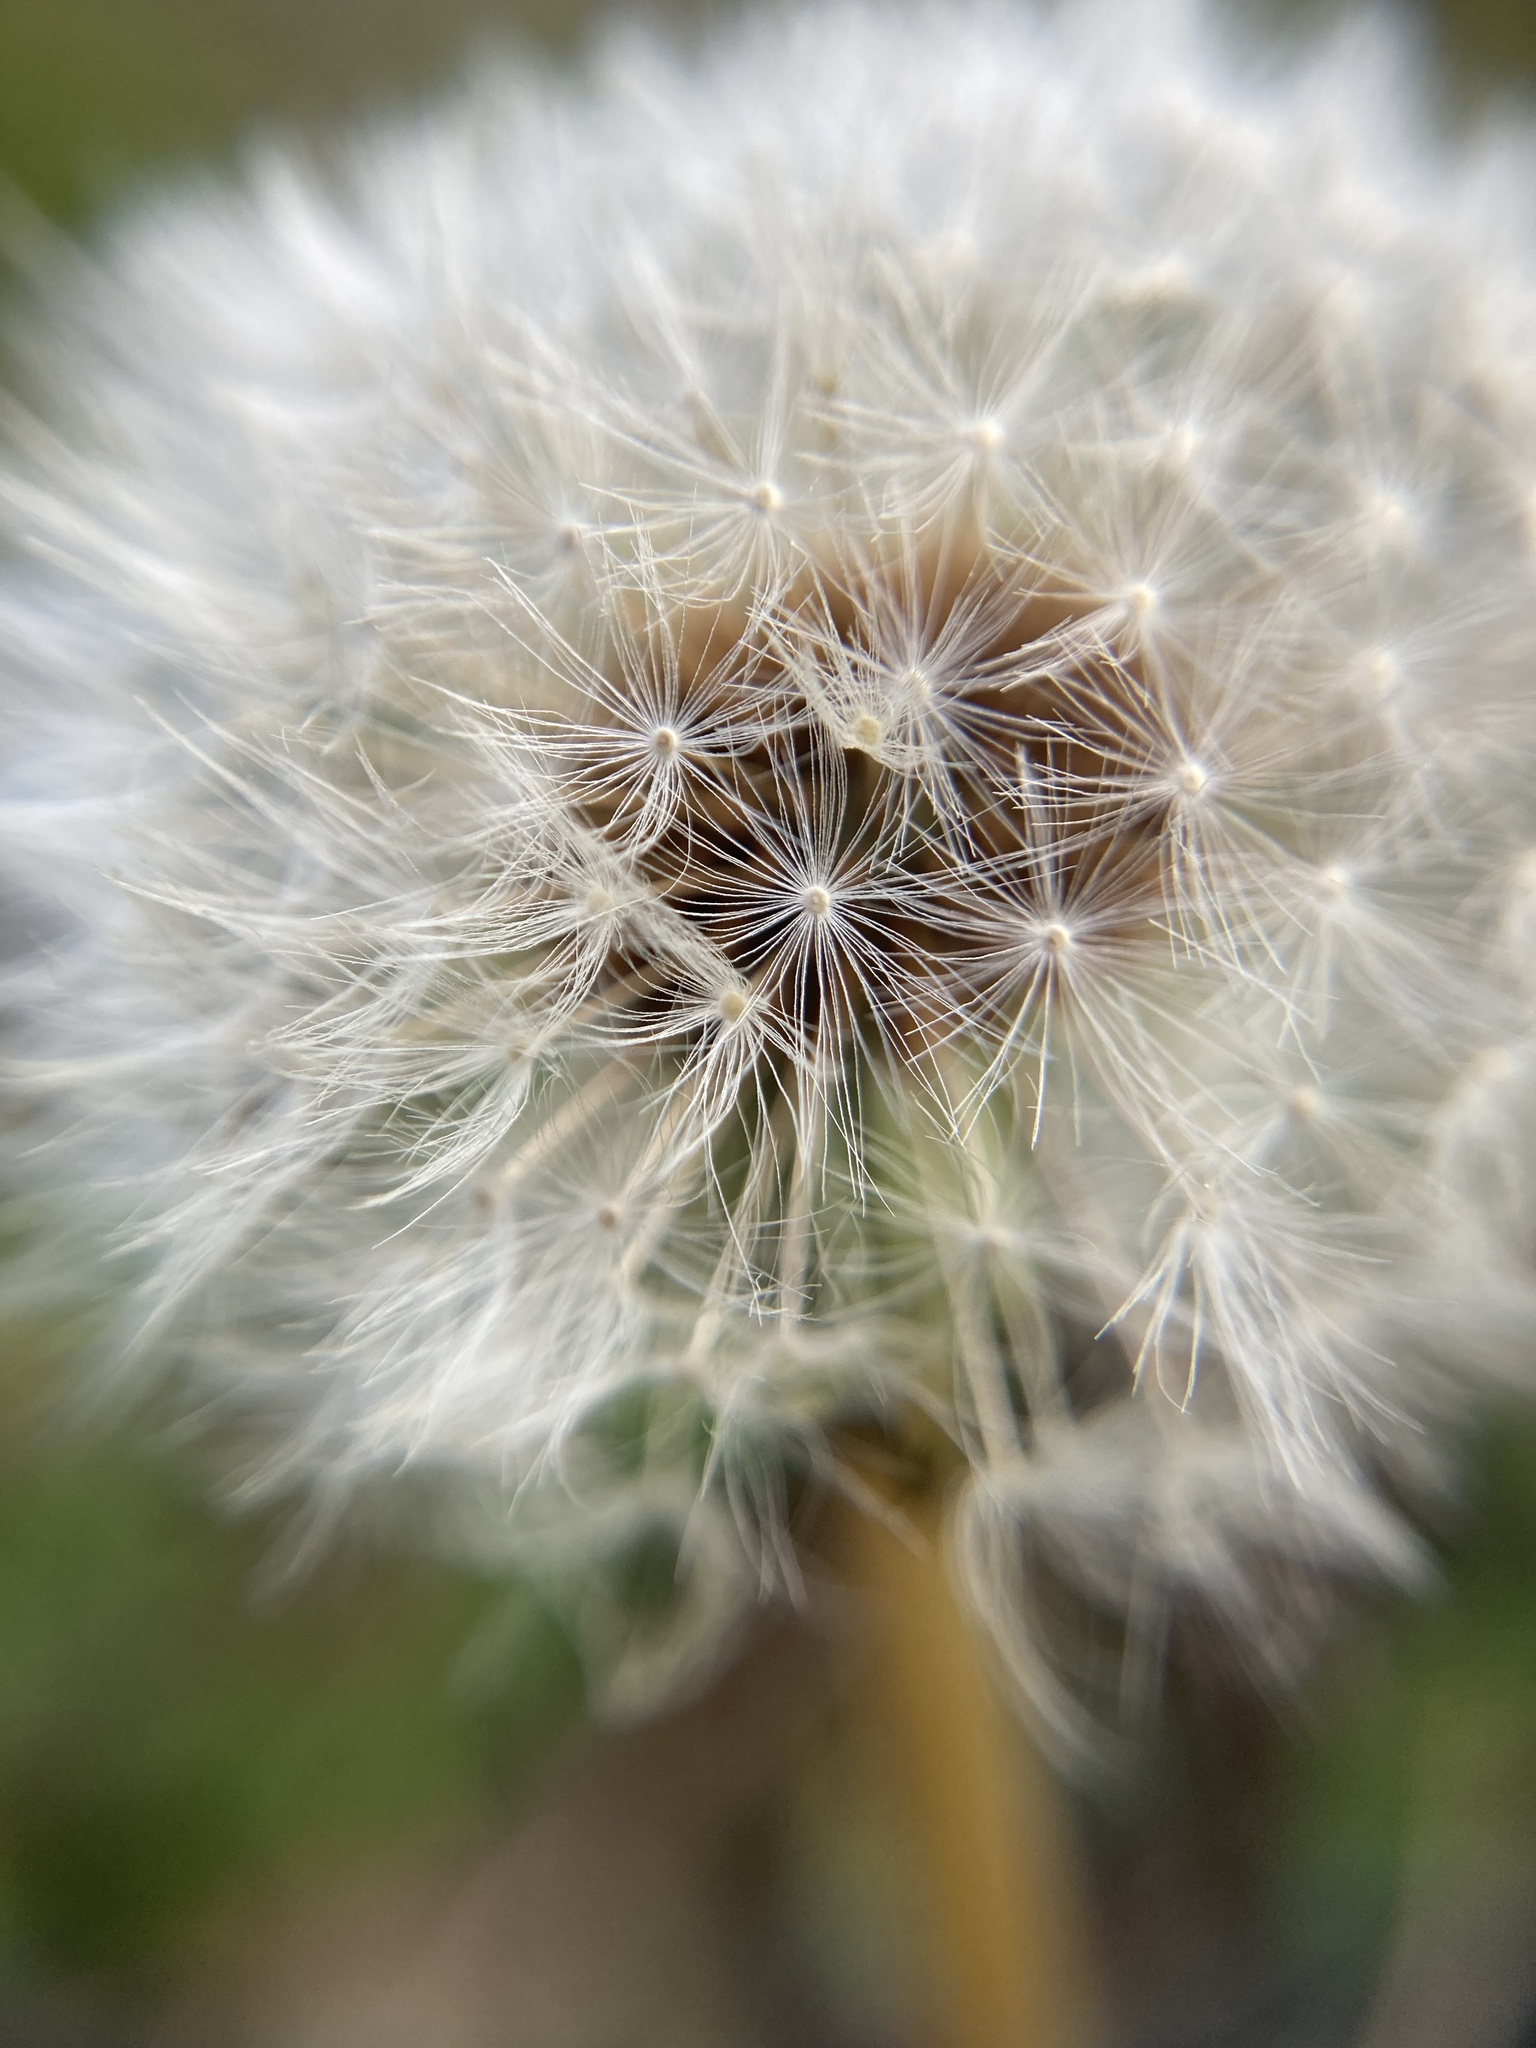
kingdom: Plantae
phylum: Tracheophyta
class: Magnoliopsida
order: Asterales
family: Asteraceae
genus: Taraxacum
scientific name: Taraxacum officinale
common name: Common dandelion
